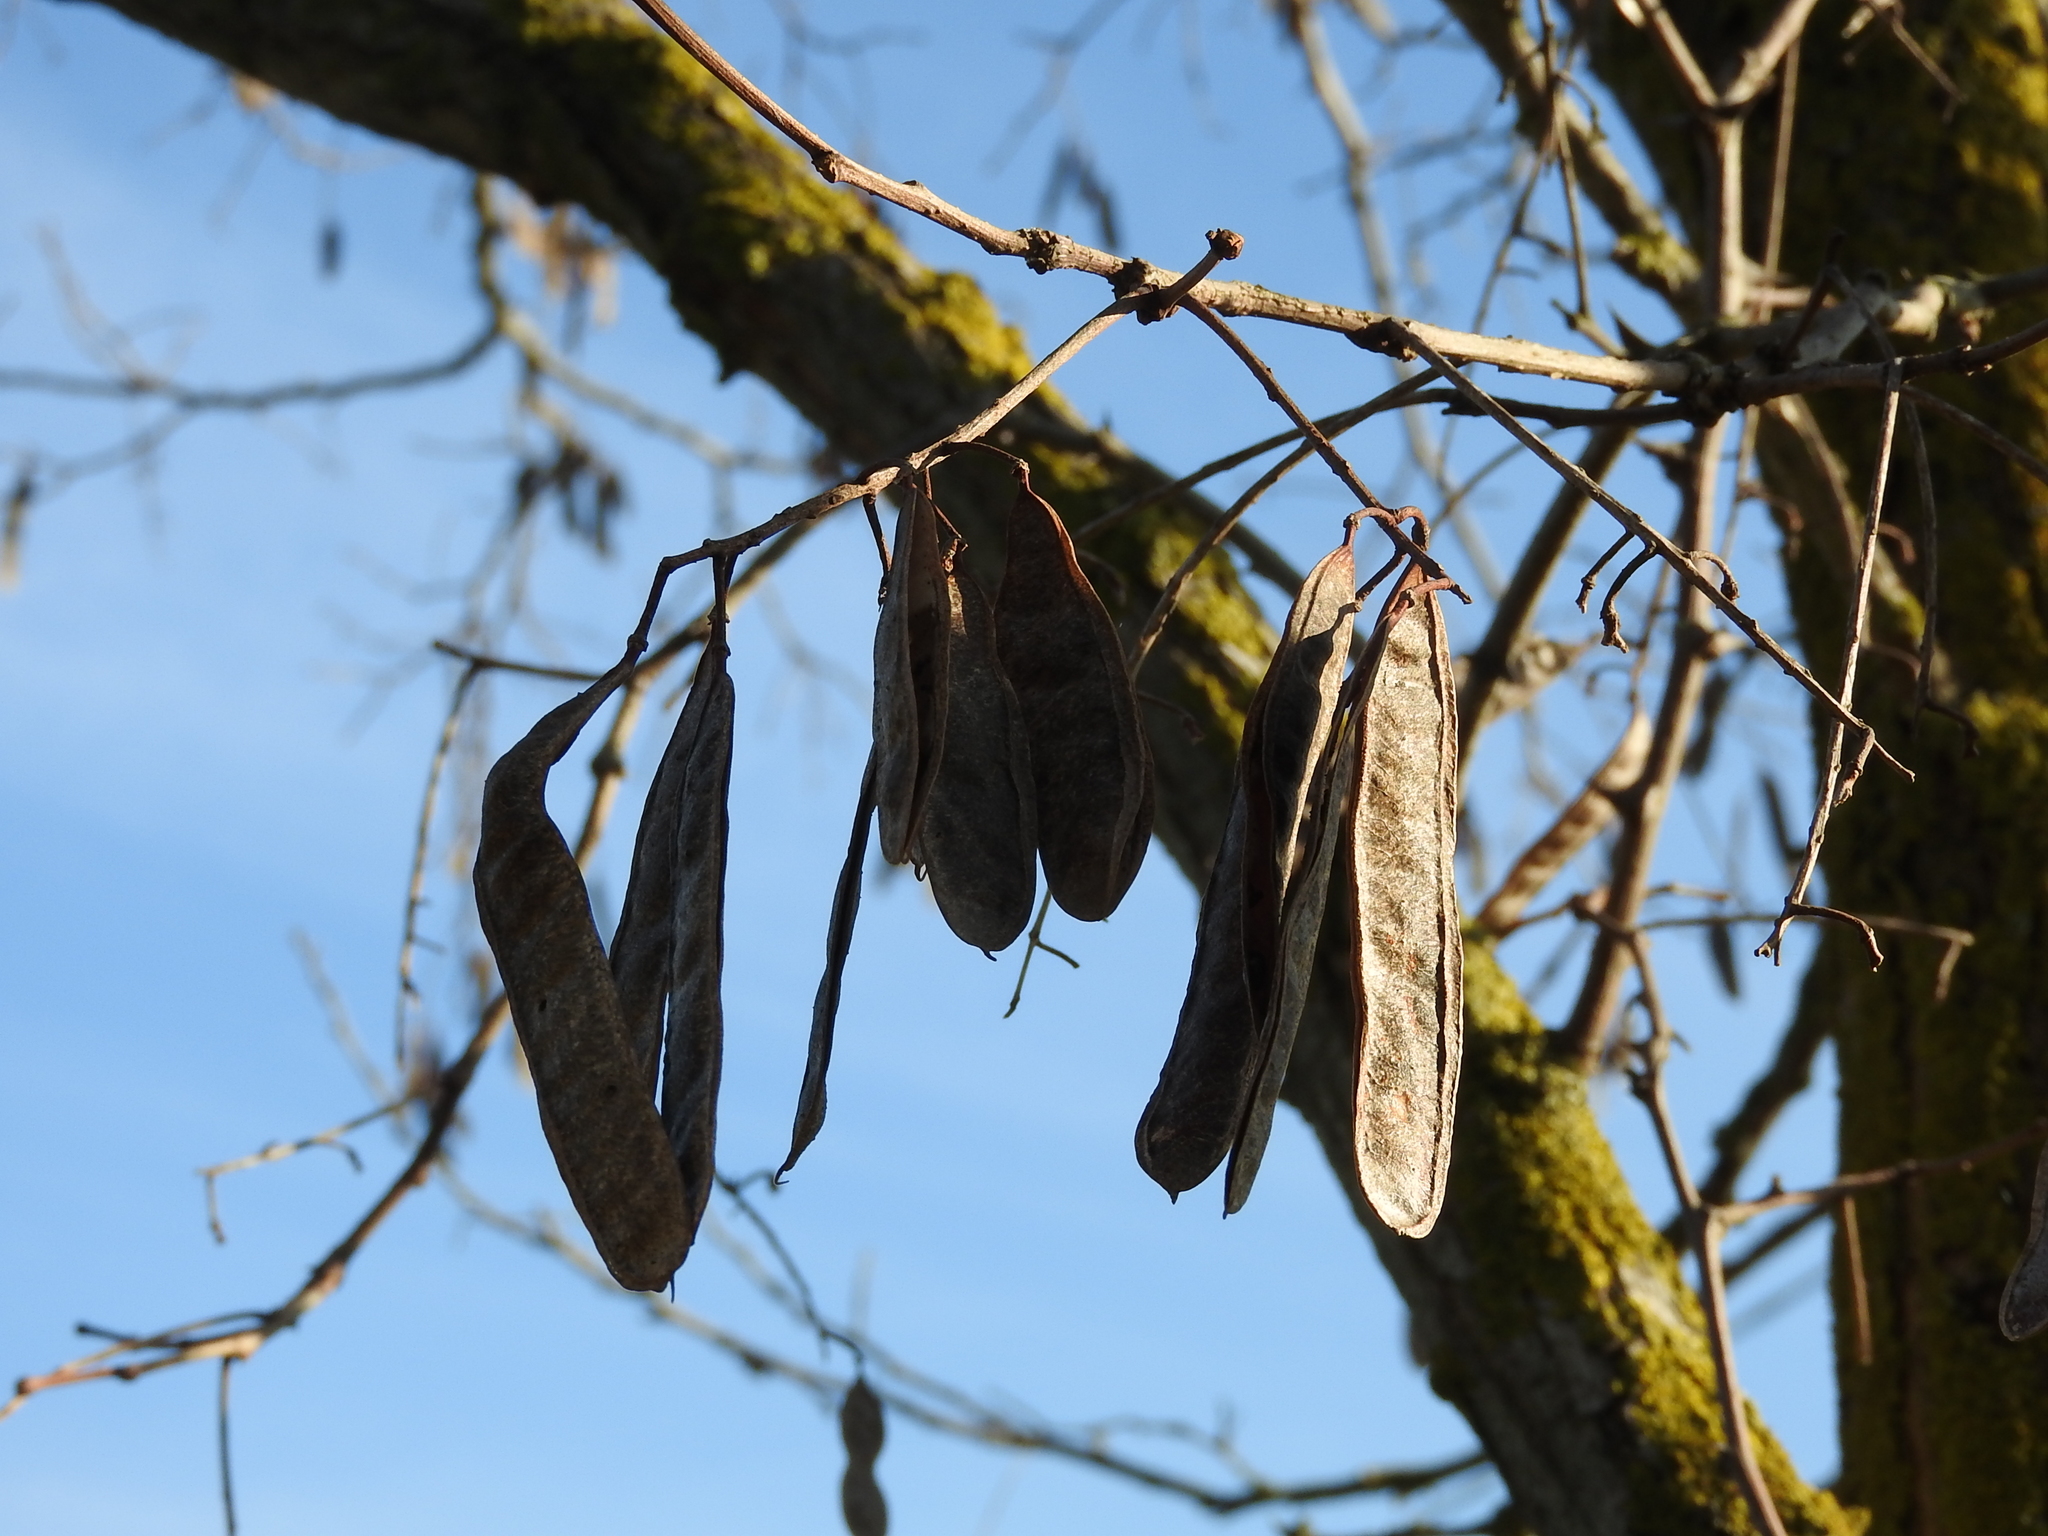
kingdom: Plantae
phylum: Tracheophyta
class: Magnoliopsida
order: Fabales
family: Fabaceae
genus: Robinia
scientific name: Robinia pseudoacacia
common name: Black locust
